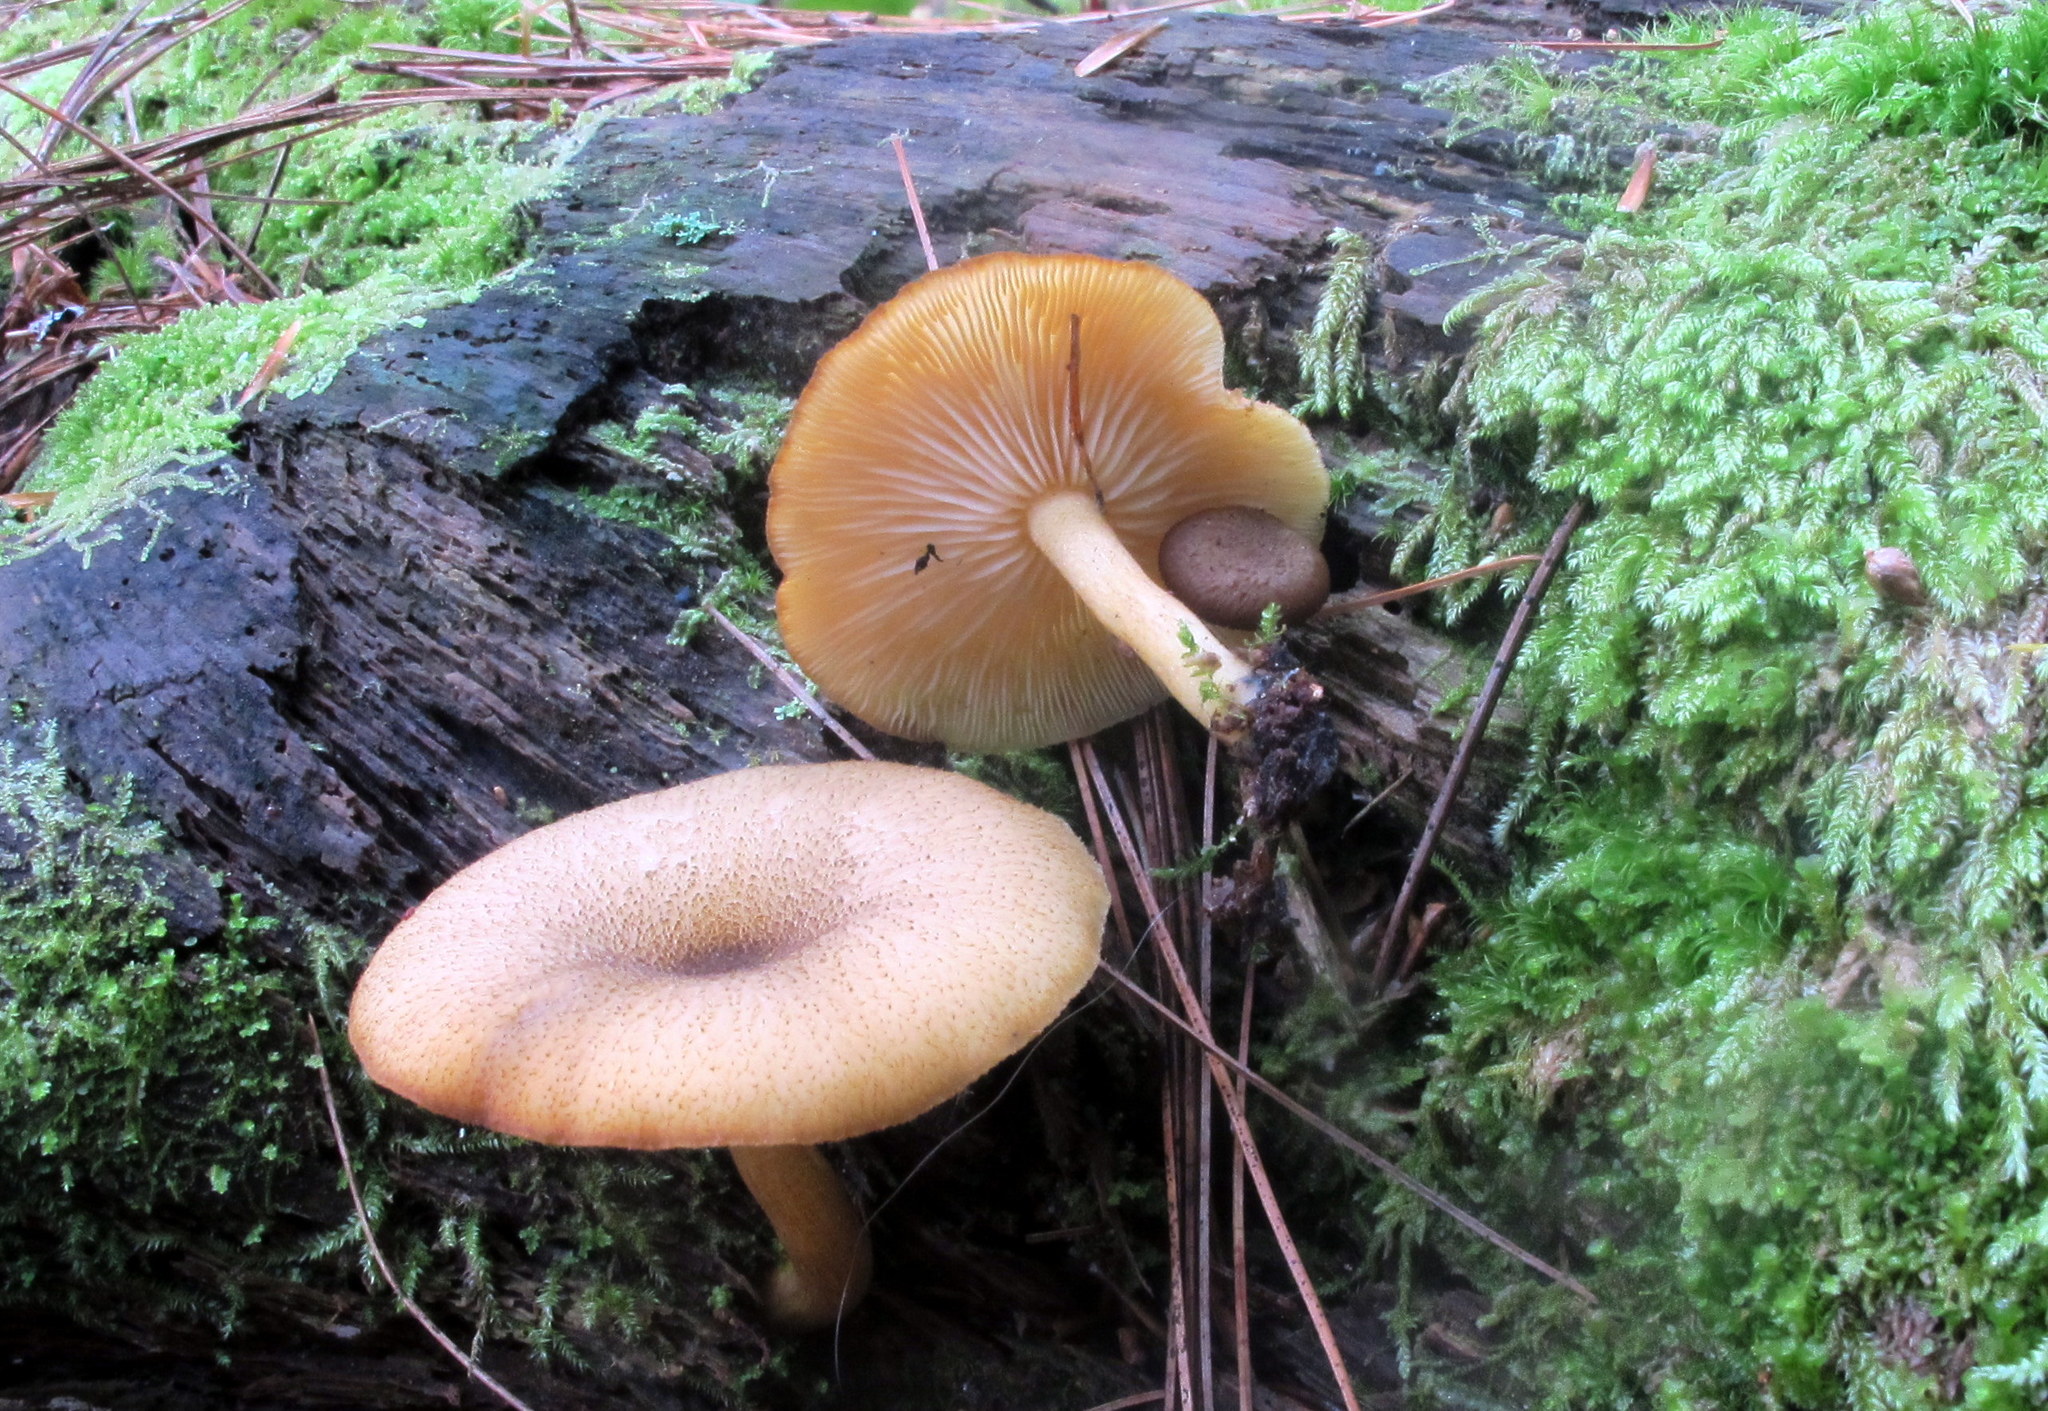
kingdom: Fungi
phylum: Basidiomycota
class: Agaricomycetes
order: Agaricales
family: Tricholomataceae
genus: Tricholomopsis
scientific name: Tricholomopsis decora
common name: Prunes and custard
